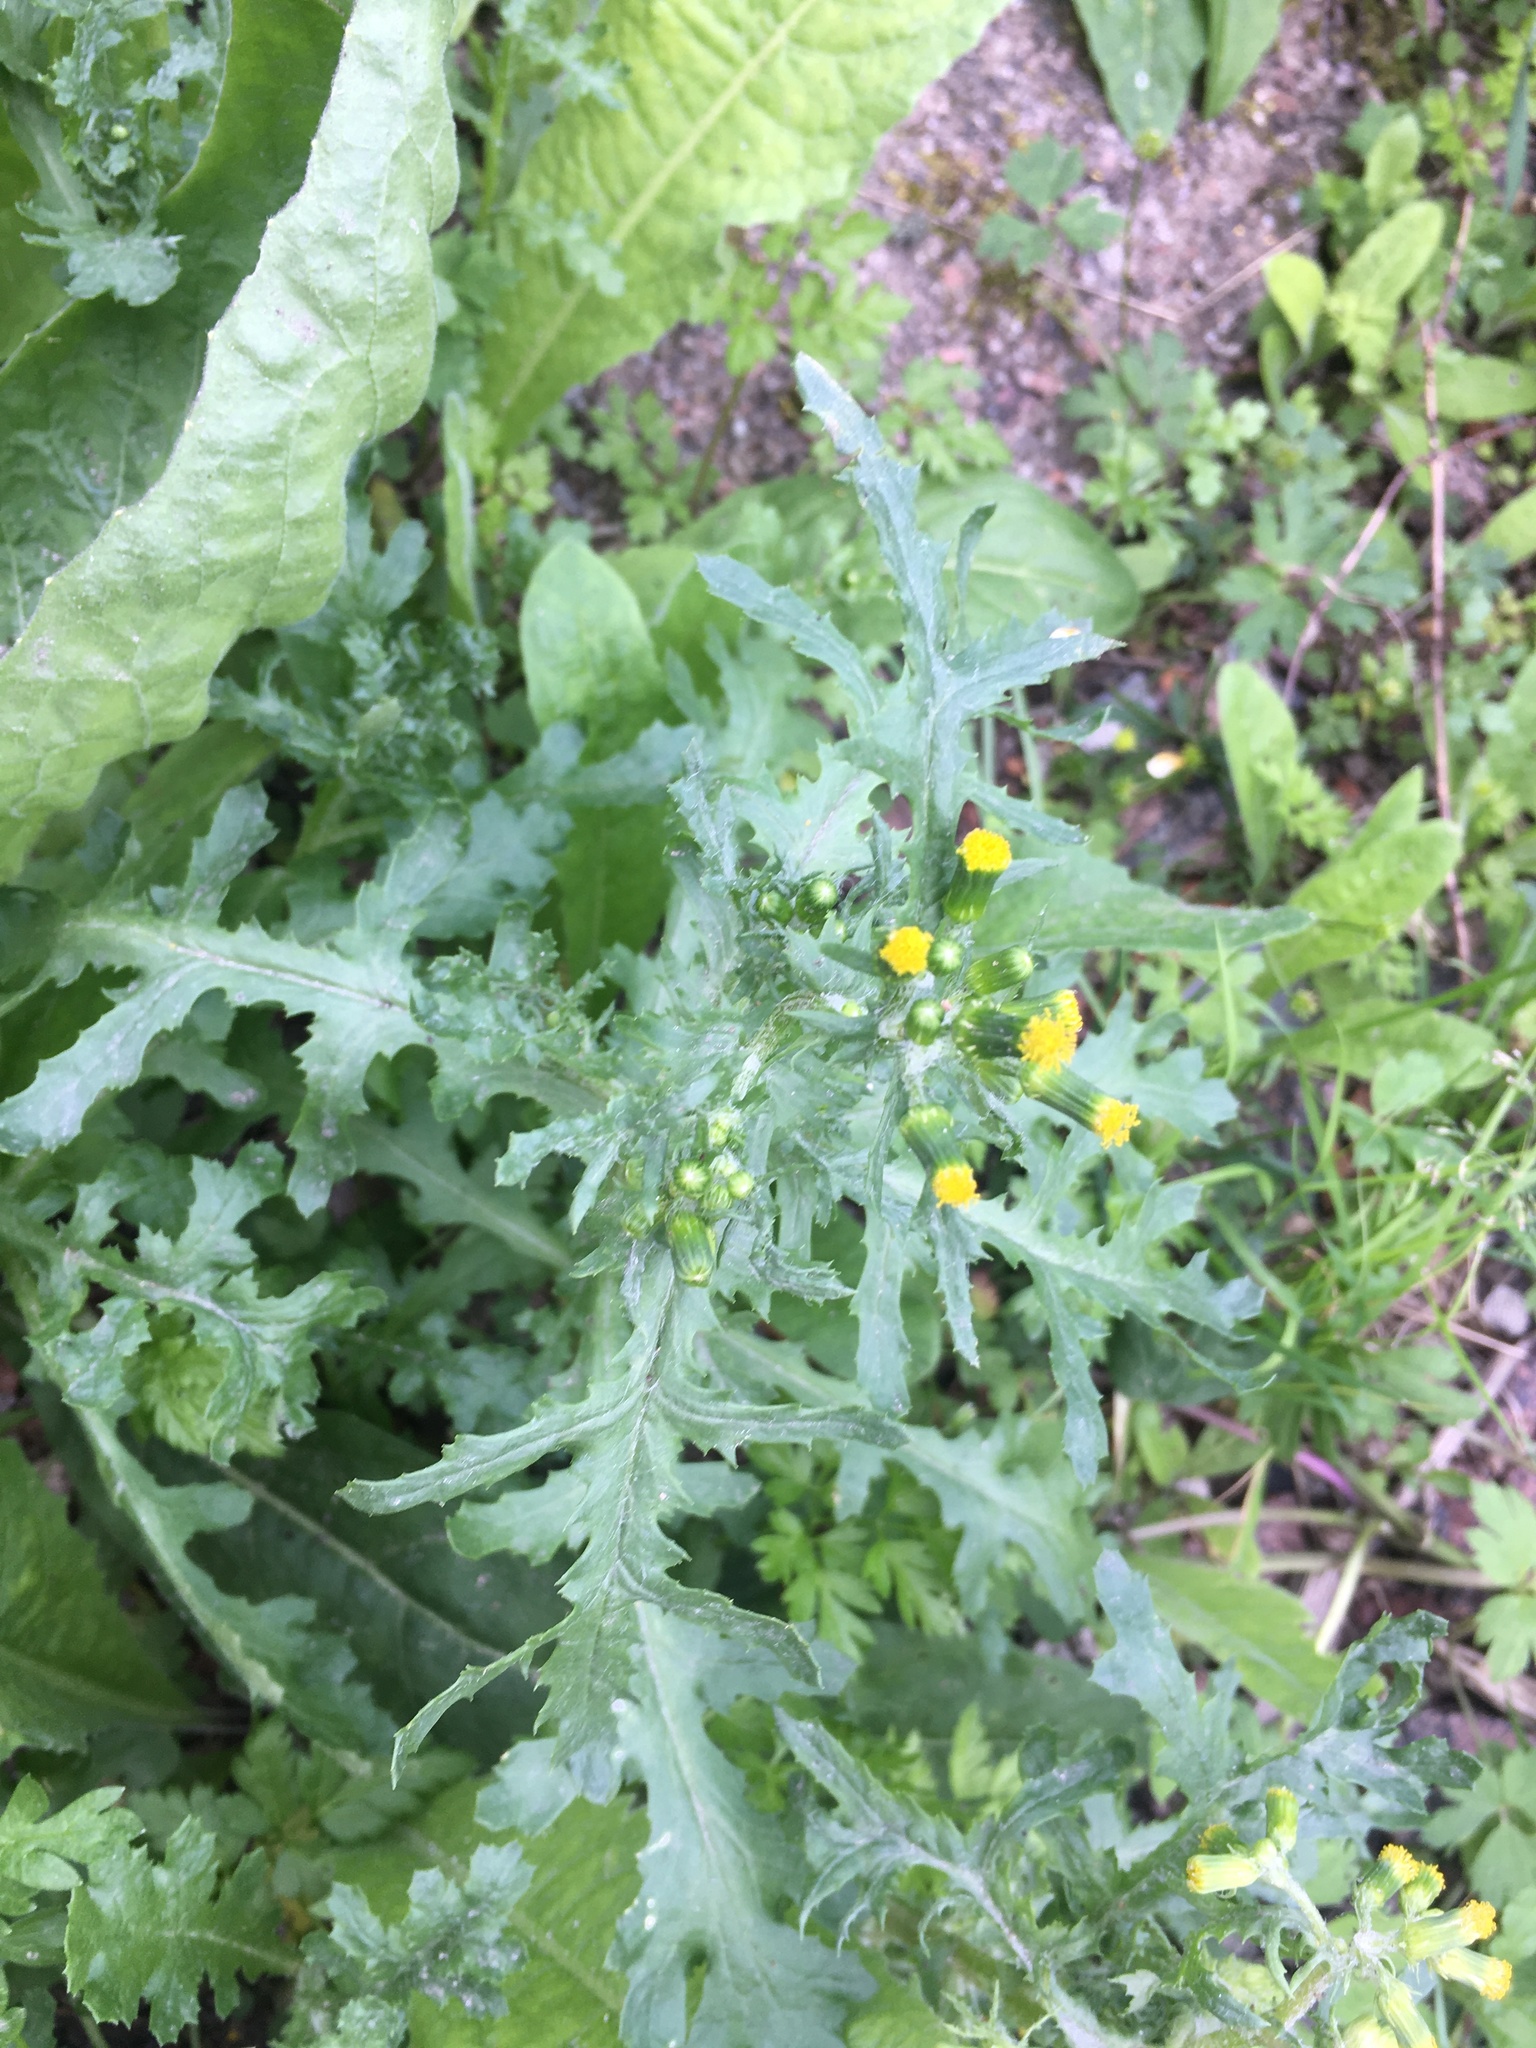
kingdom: Plantae
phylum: Tracheophyta
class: Magnoliopsida
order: Asterales
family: Asteraceae
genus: Senecio
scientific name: Senecio vulgaris
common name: Old-man-in-the-spring
